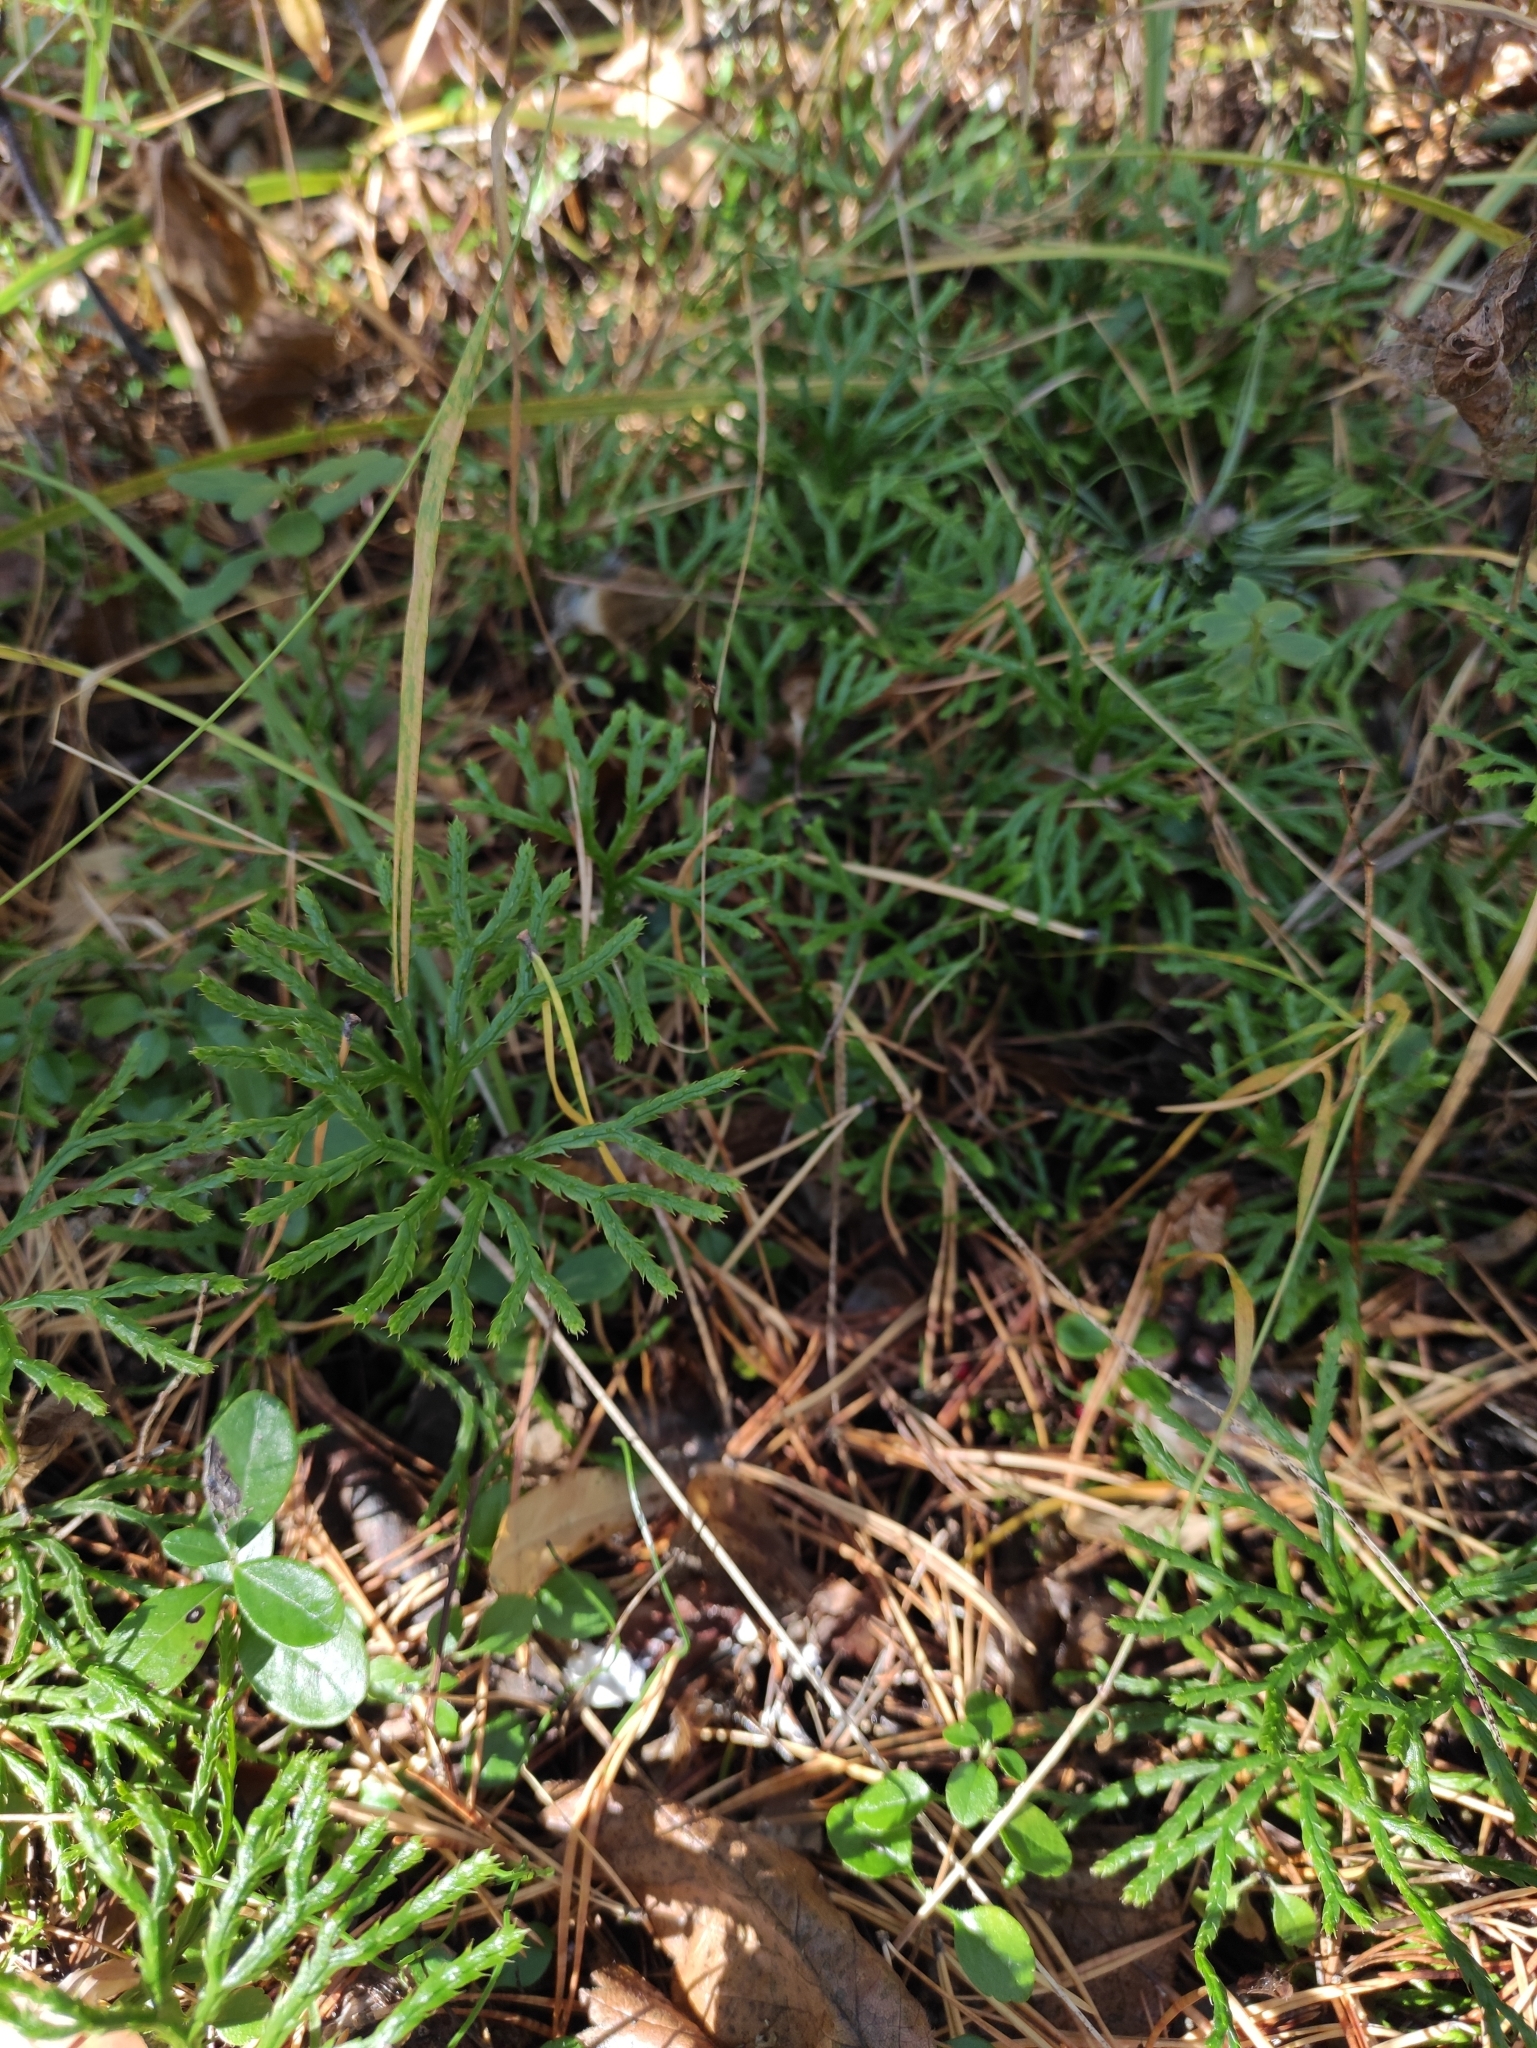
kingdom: Plantae
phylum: Tracheophyta
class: Lycopodiopsida
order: Lycopodiales
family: Lycopodiaceae
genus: Diphasiastrum
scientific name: Diphasiastrum complanatum
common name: Northern running-pine
